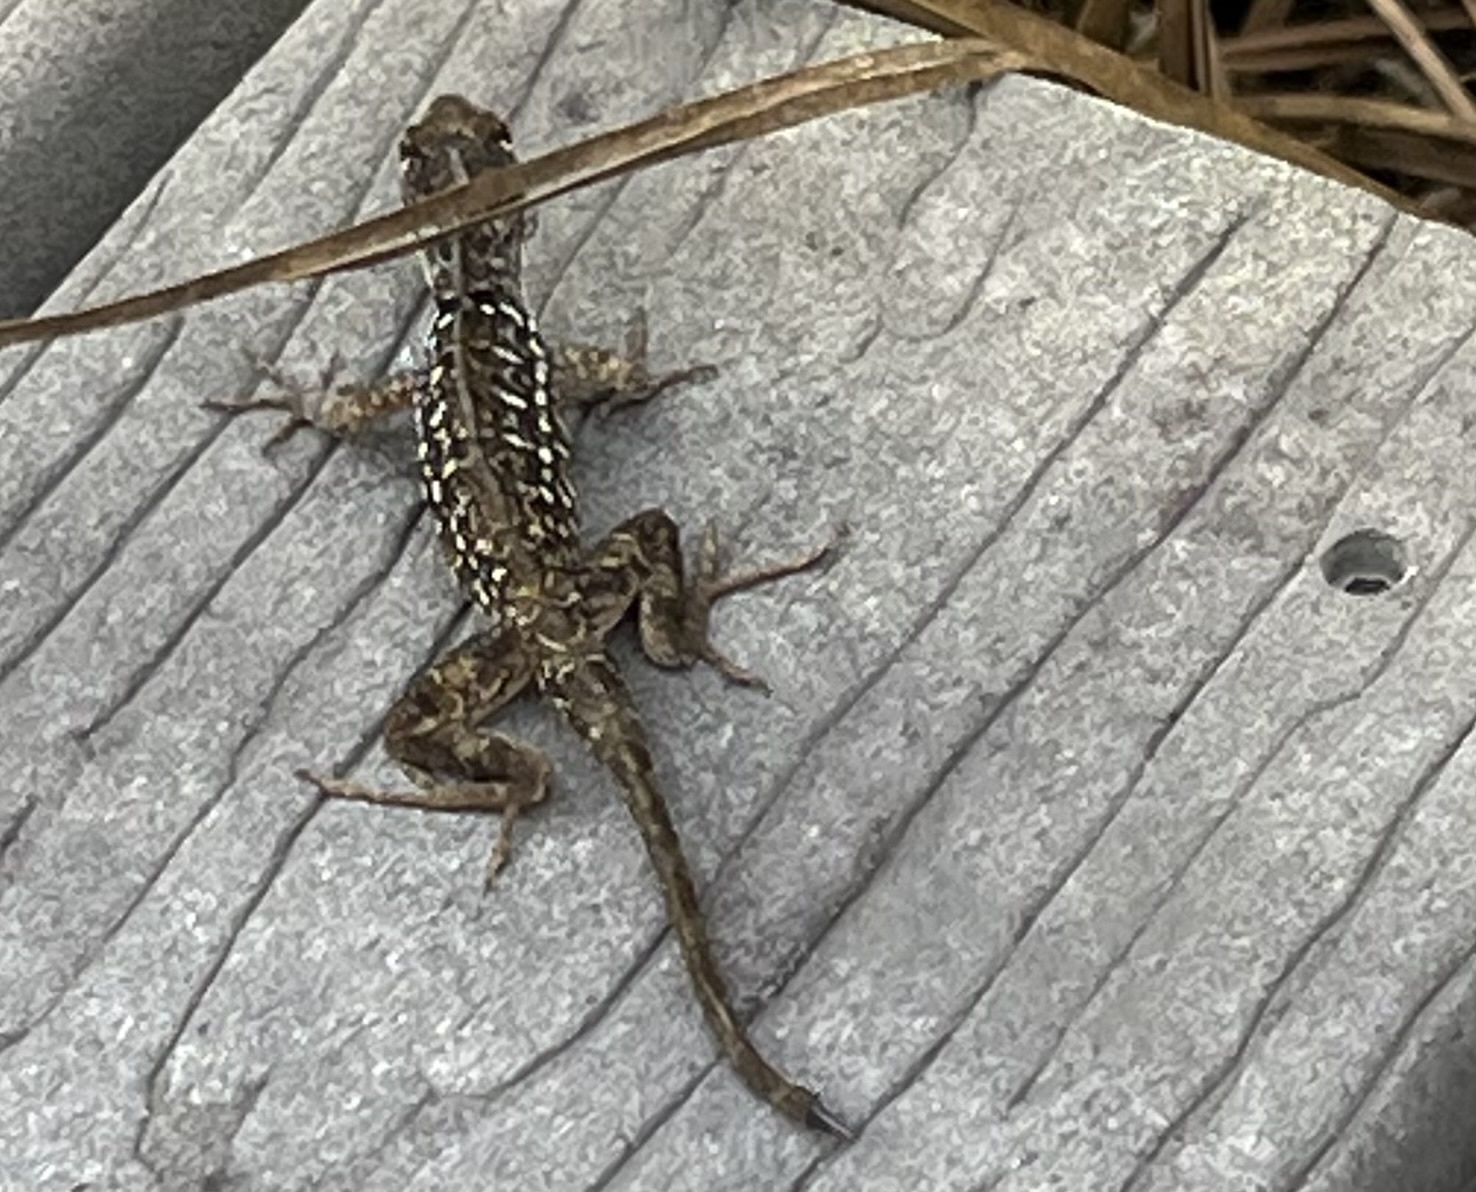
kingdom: Animalia
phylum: Chordata
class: Squamata
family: Dactyloidae
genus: Anolis
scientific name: Anolis sagrei
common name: Brown anole
